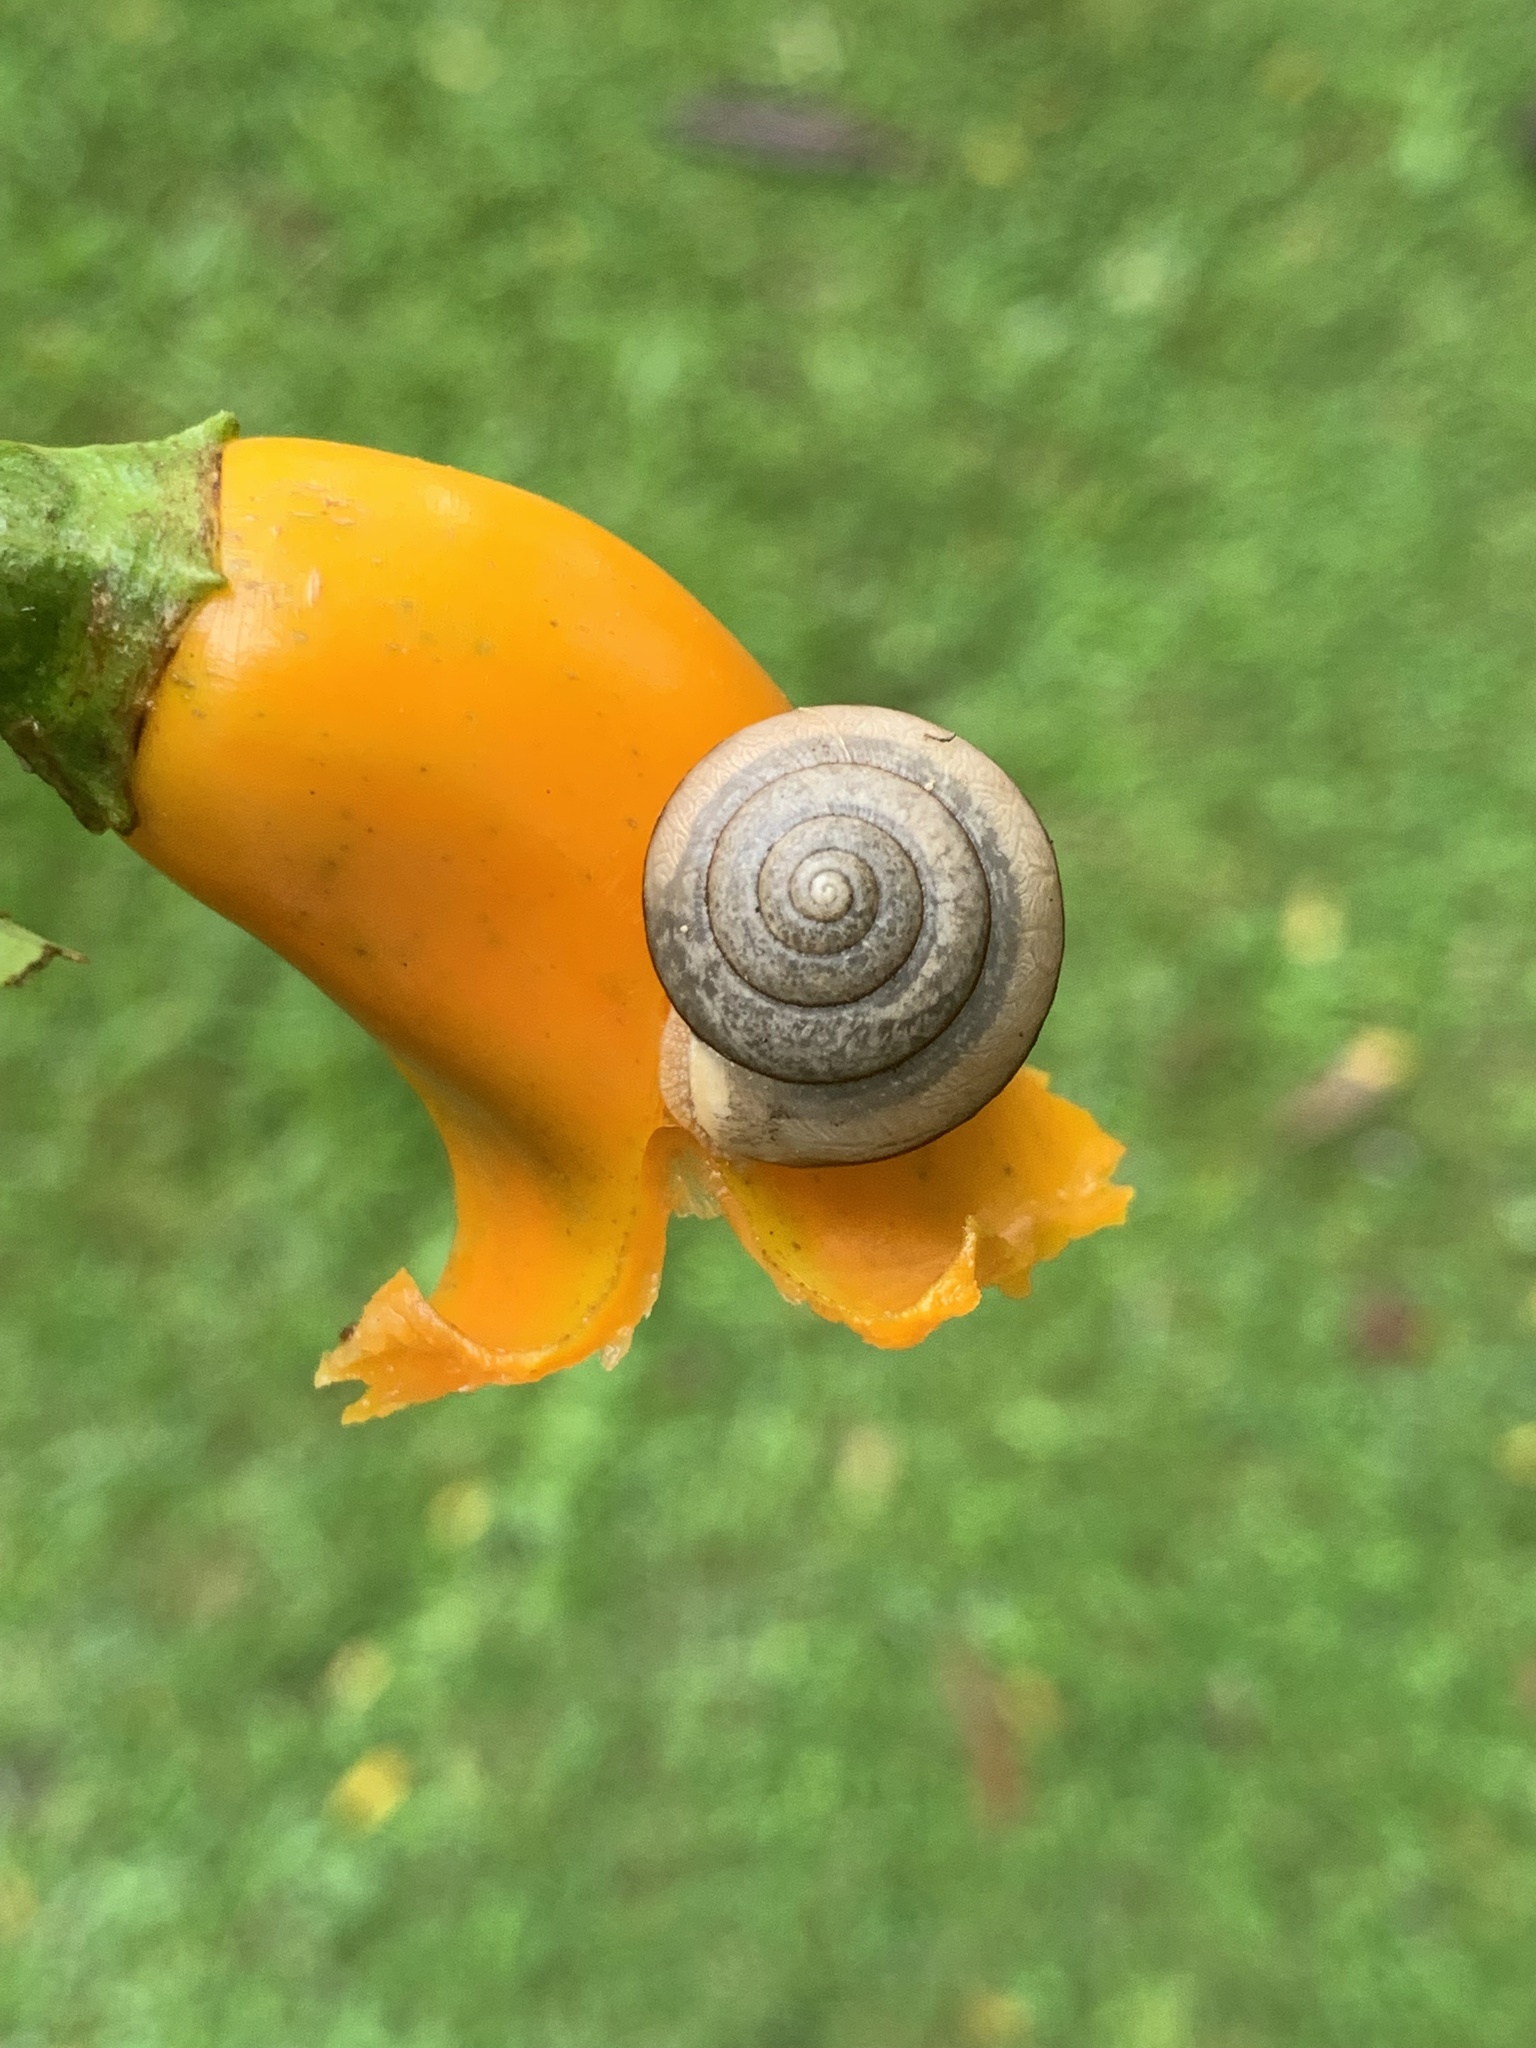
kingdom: Animalia
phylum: Mollusca
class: Gastropoda
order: Stylommatophora
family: Camaenidae
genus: Bradybaena
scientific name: Bradybaena similaris
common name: Asian trampsnail
